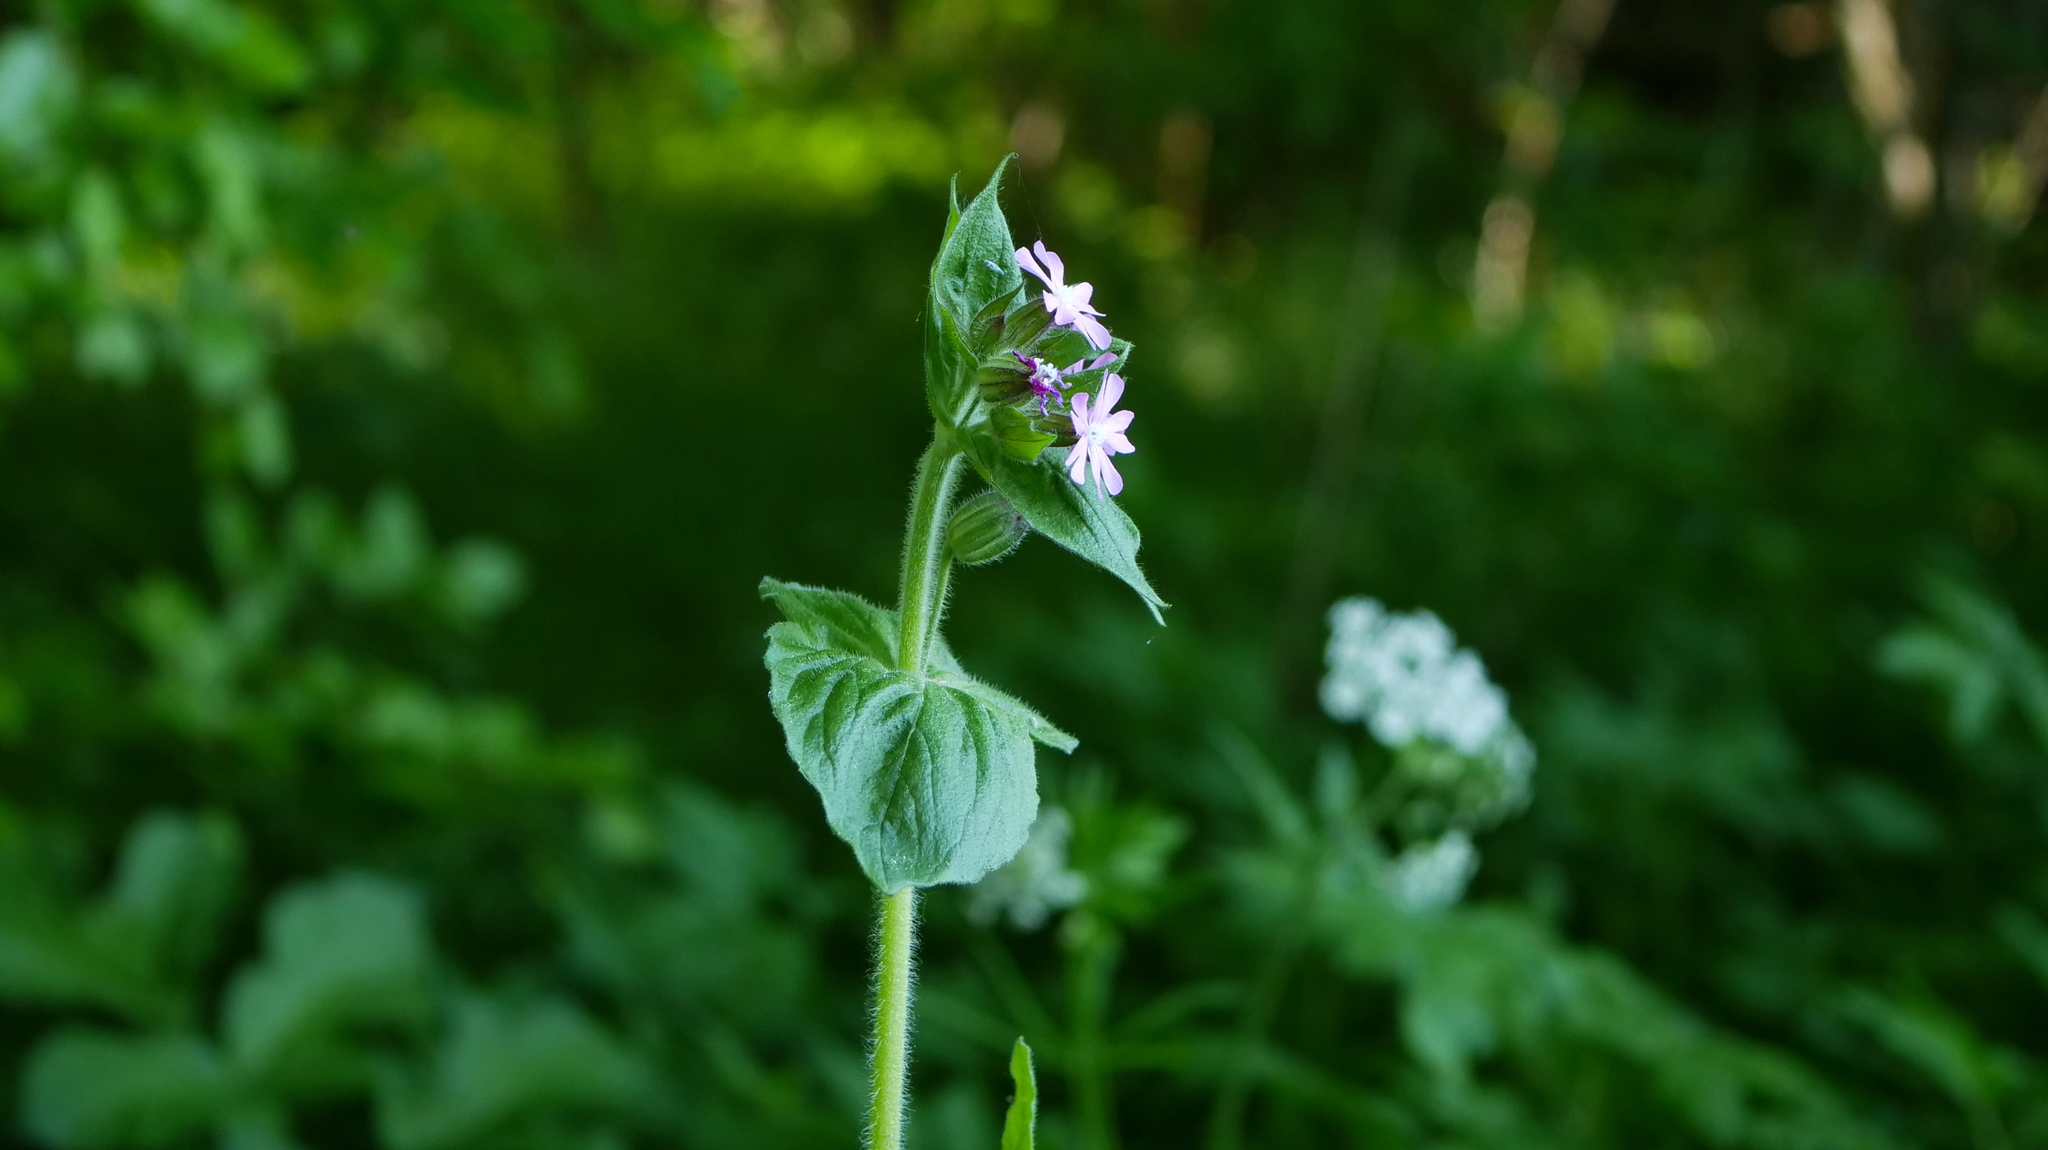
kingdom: Plantae
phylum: Tracheophyta
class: Magnoliopsida
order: Caryophyllales
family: Caryophyllaceae
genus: Silene
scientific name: Silene dioica
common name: Red campion
